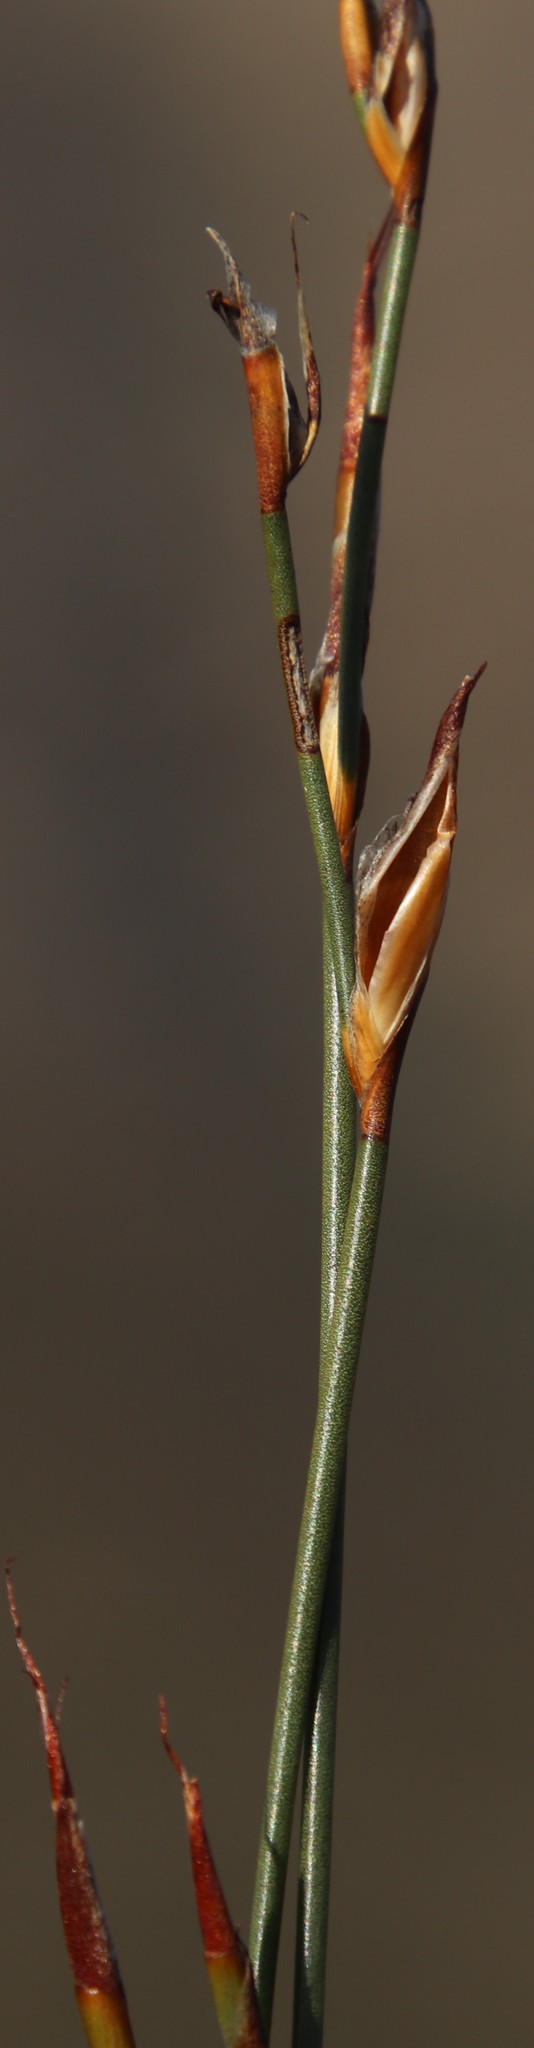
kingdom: Plantae
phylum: Tracheophyta
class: Liliopsida
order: Poales
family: Restionaceae
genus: Willdenowia
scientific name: Willdenowia arescens
